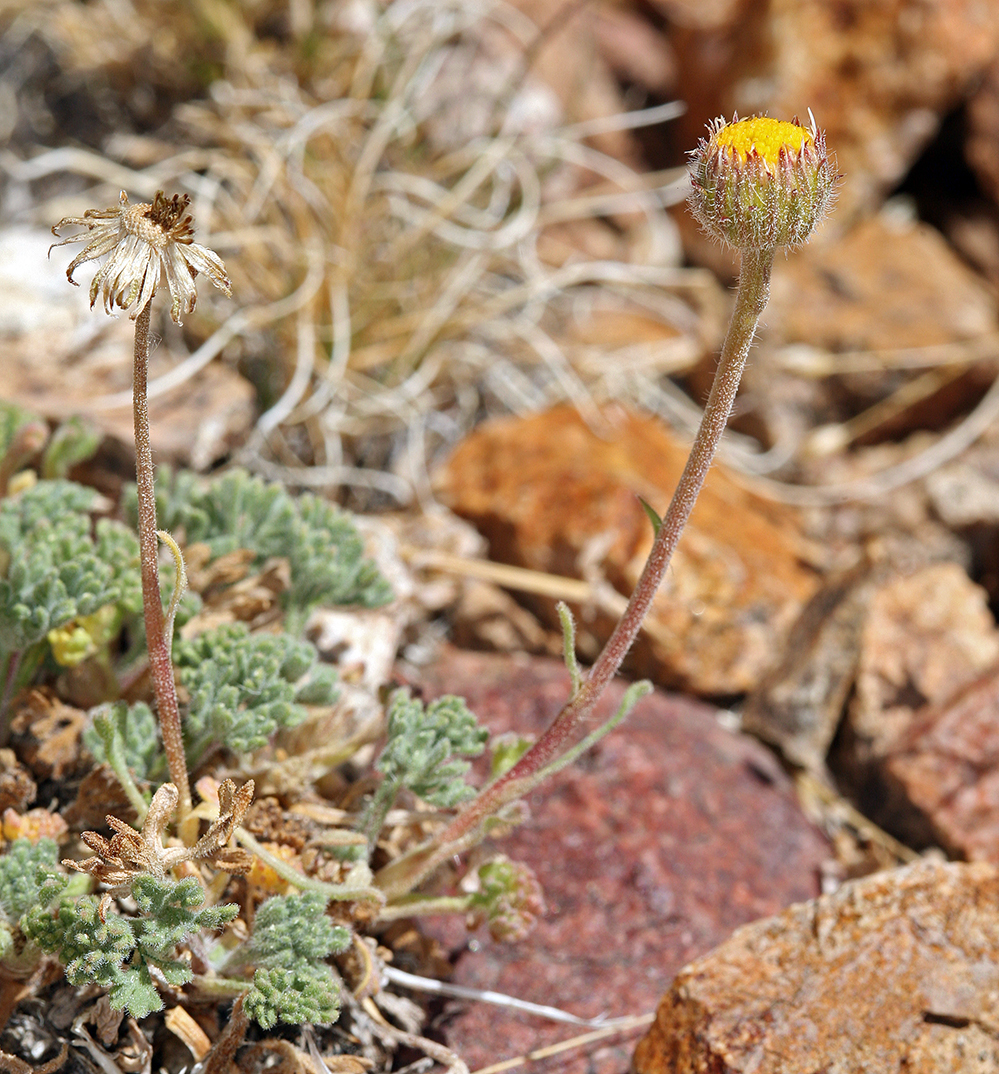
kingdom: Plantae
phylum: Tracheophyta
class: Magnoliopsida
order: Asterales
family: Asteraceae
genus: Erigeron
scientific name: Erigeron compositus
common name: Dwarf mountain fleabane
